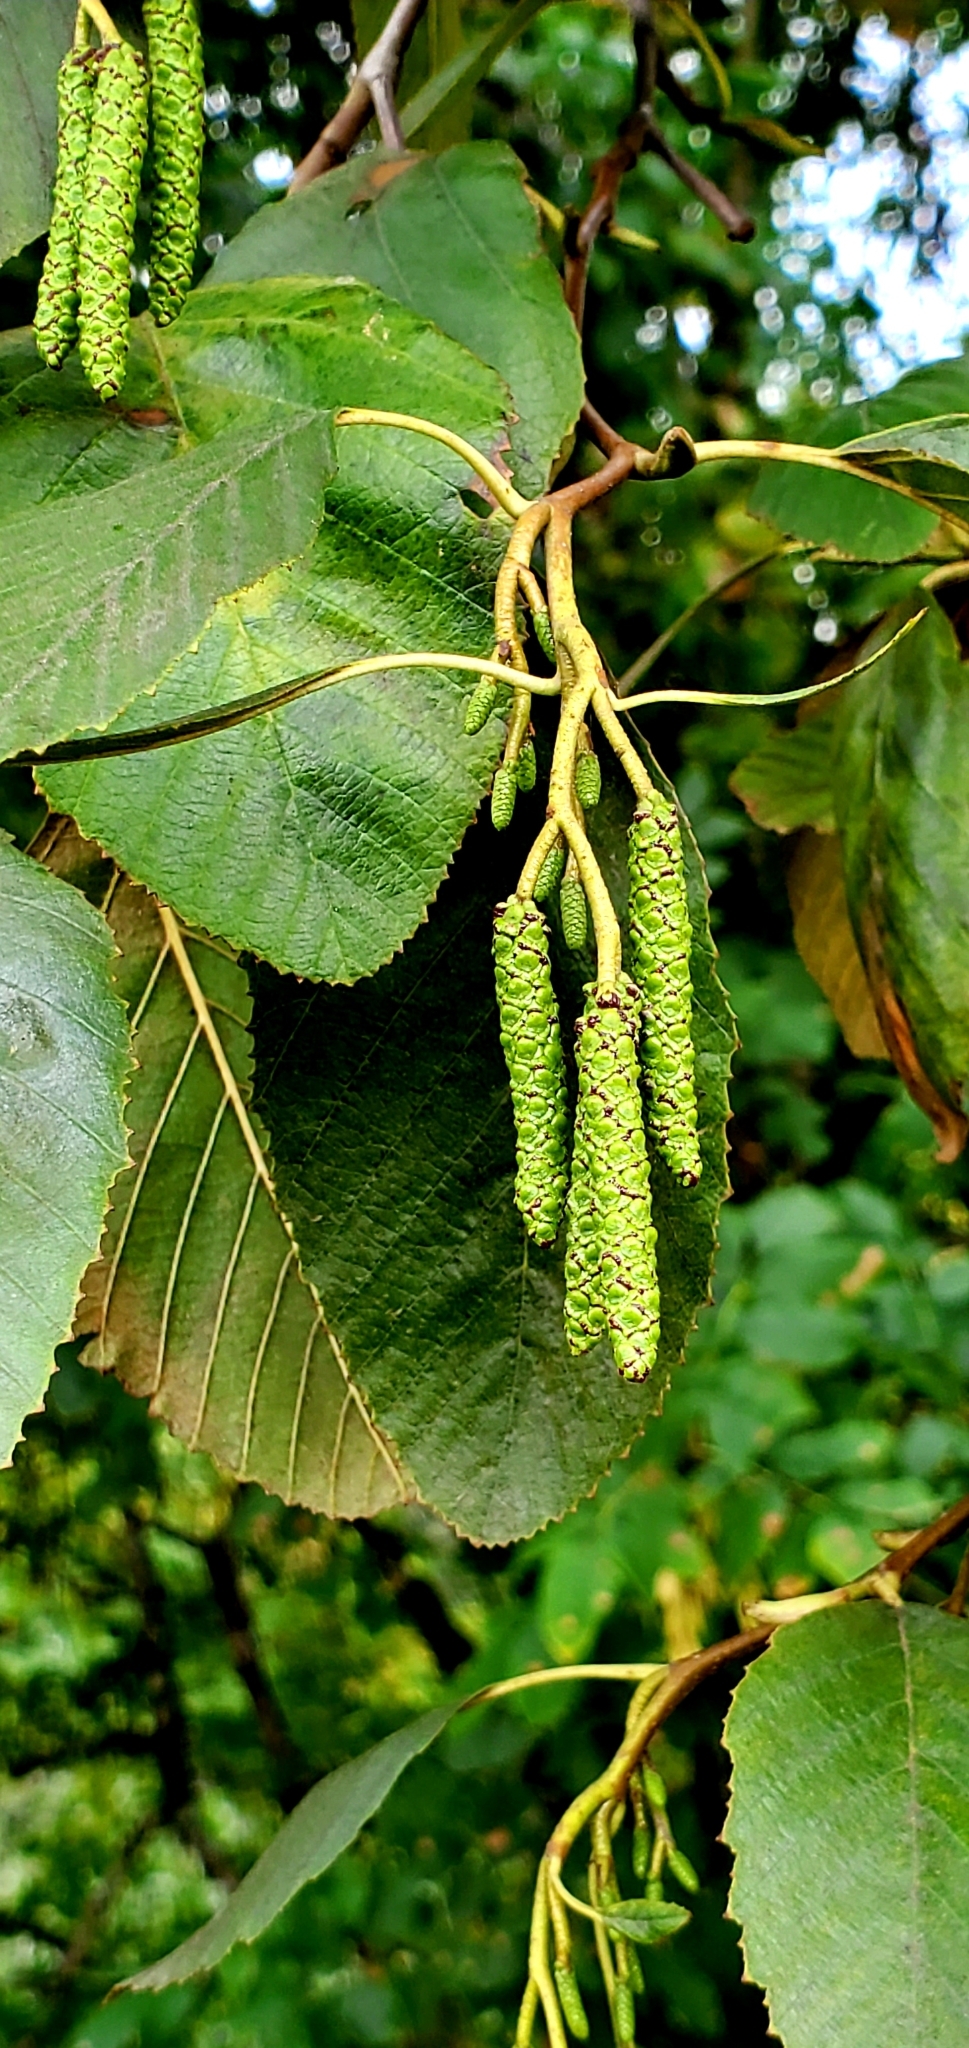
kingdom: Plantae
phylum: Tracheophyta
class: Magnoliopsida
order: Fagales
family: Betulaceae
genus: Alnus
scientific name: Alnus rhombifolia
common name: California alder
